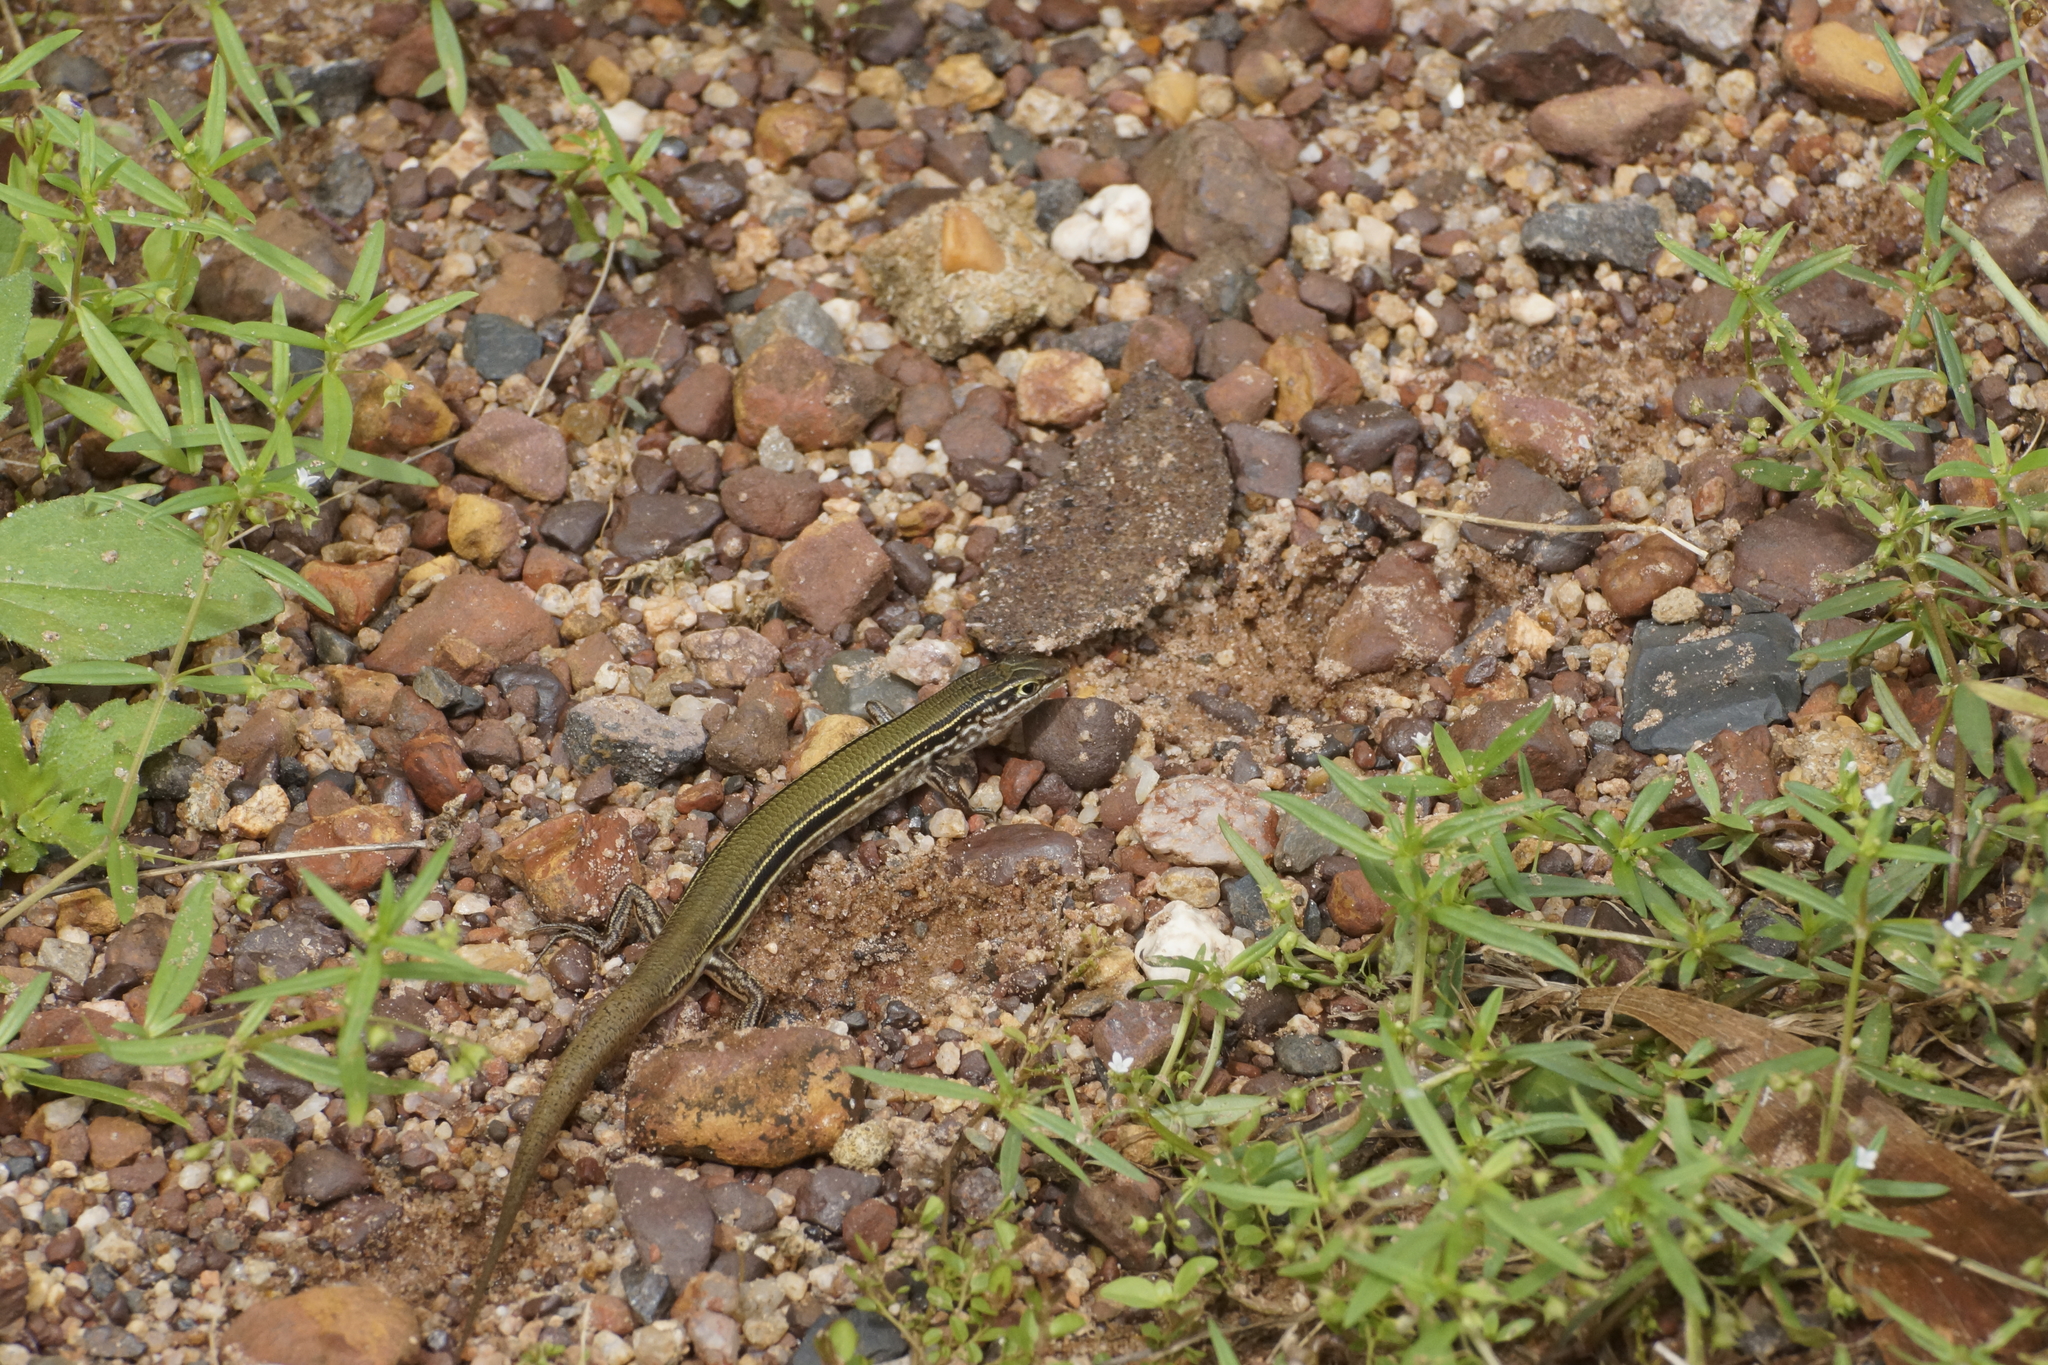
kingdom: Animalia
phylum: Chordata
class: Squamata
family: Scincidae
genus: Ctenotus
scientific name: Ctenotus essingtonii
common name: Lowlands plain-backed ctenotus
